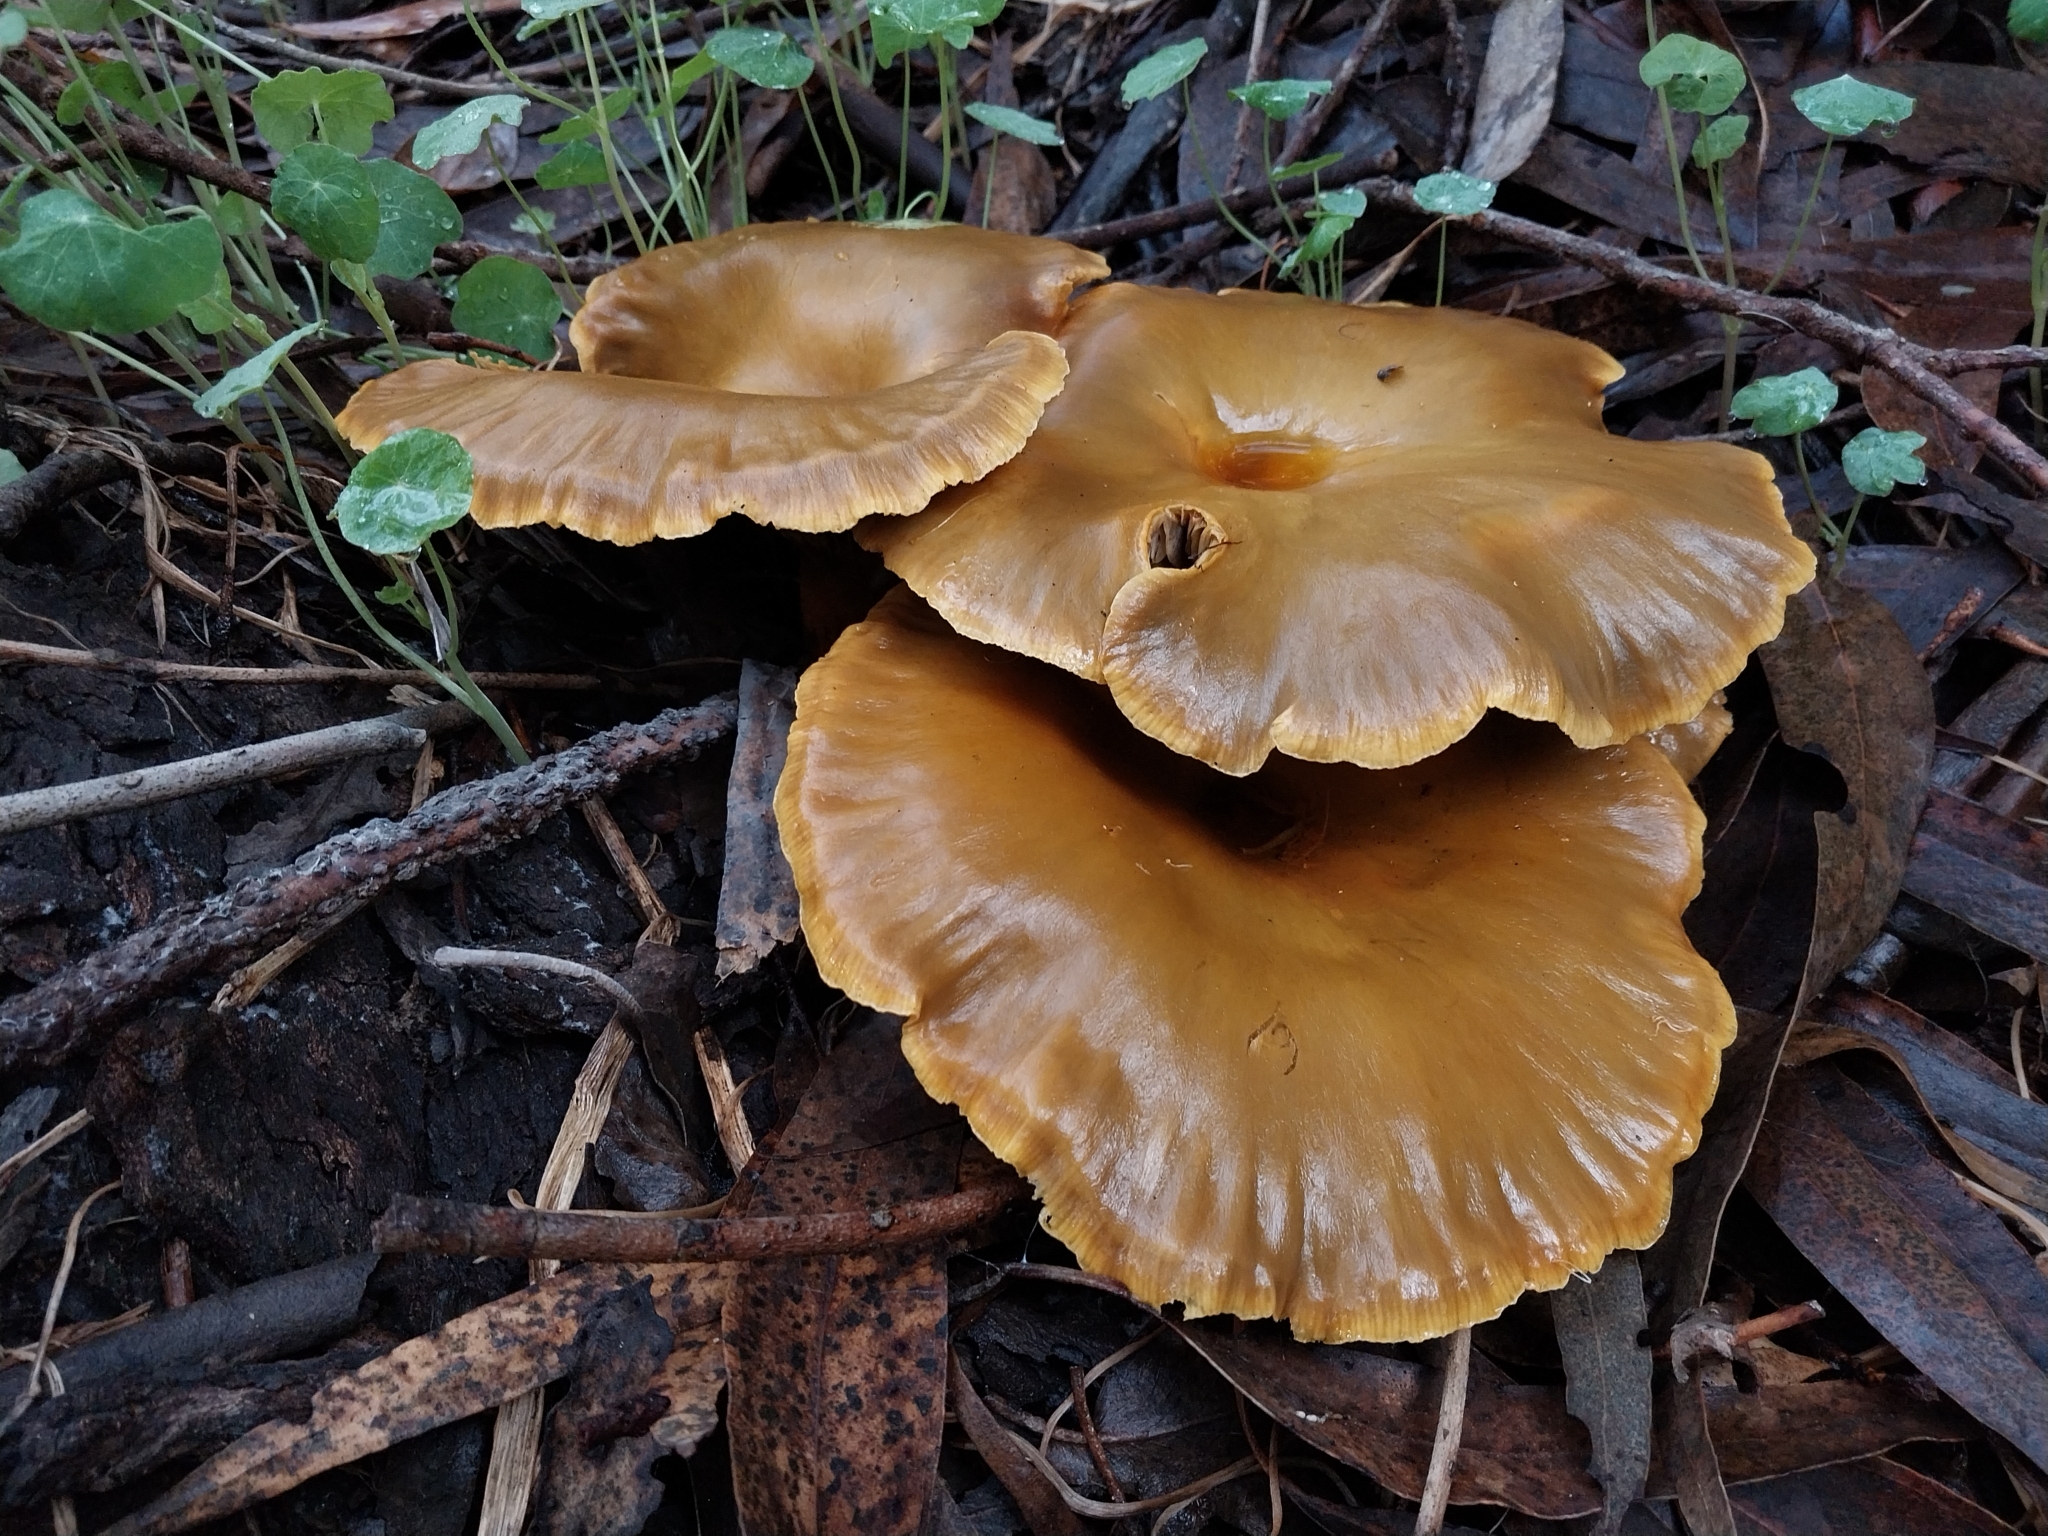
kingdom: Fungi
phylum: Basidiomycota
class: Agaricomycetes
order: Agaricales
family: Omphalotaceae
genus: Omphalotus
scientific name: Omphalotus olivascens
